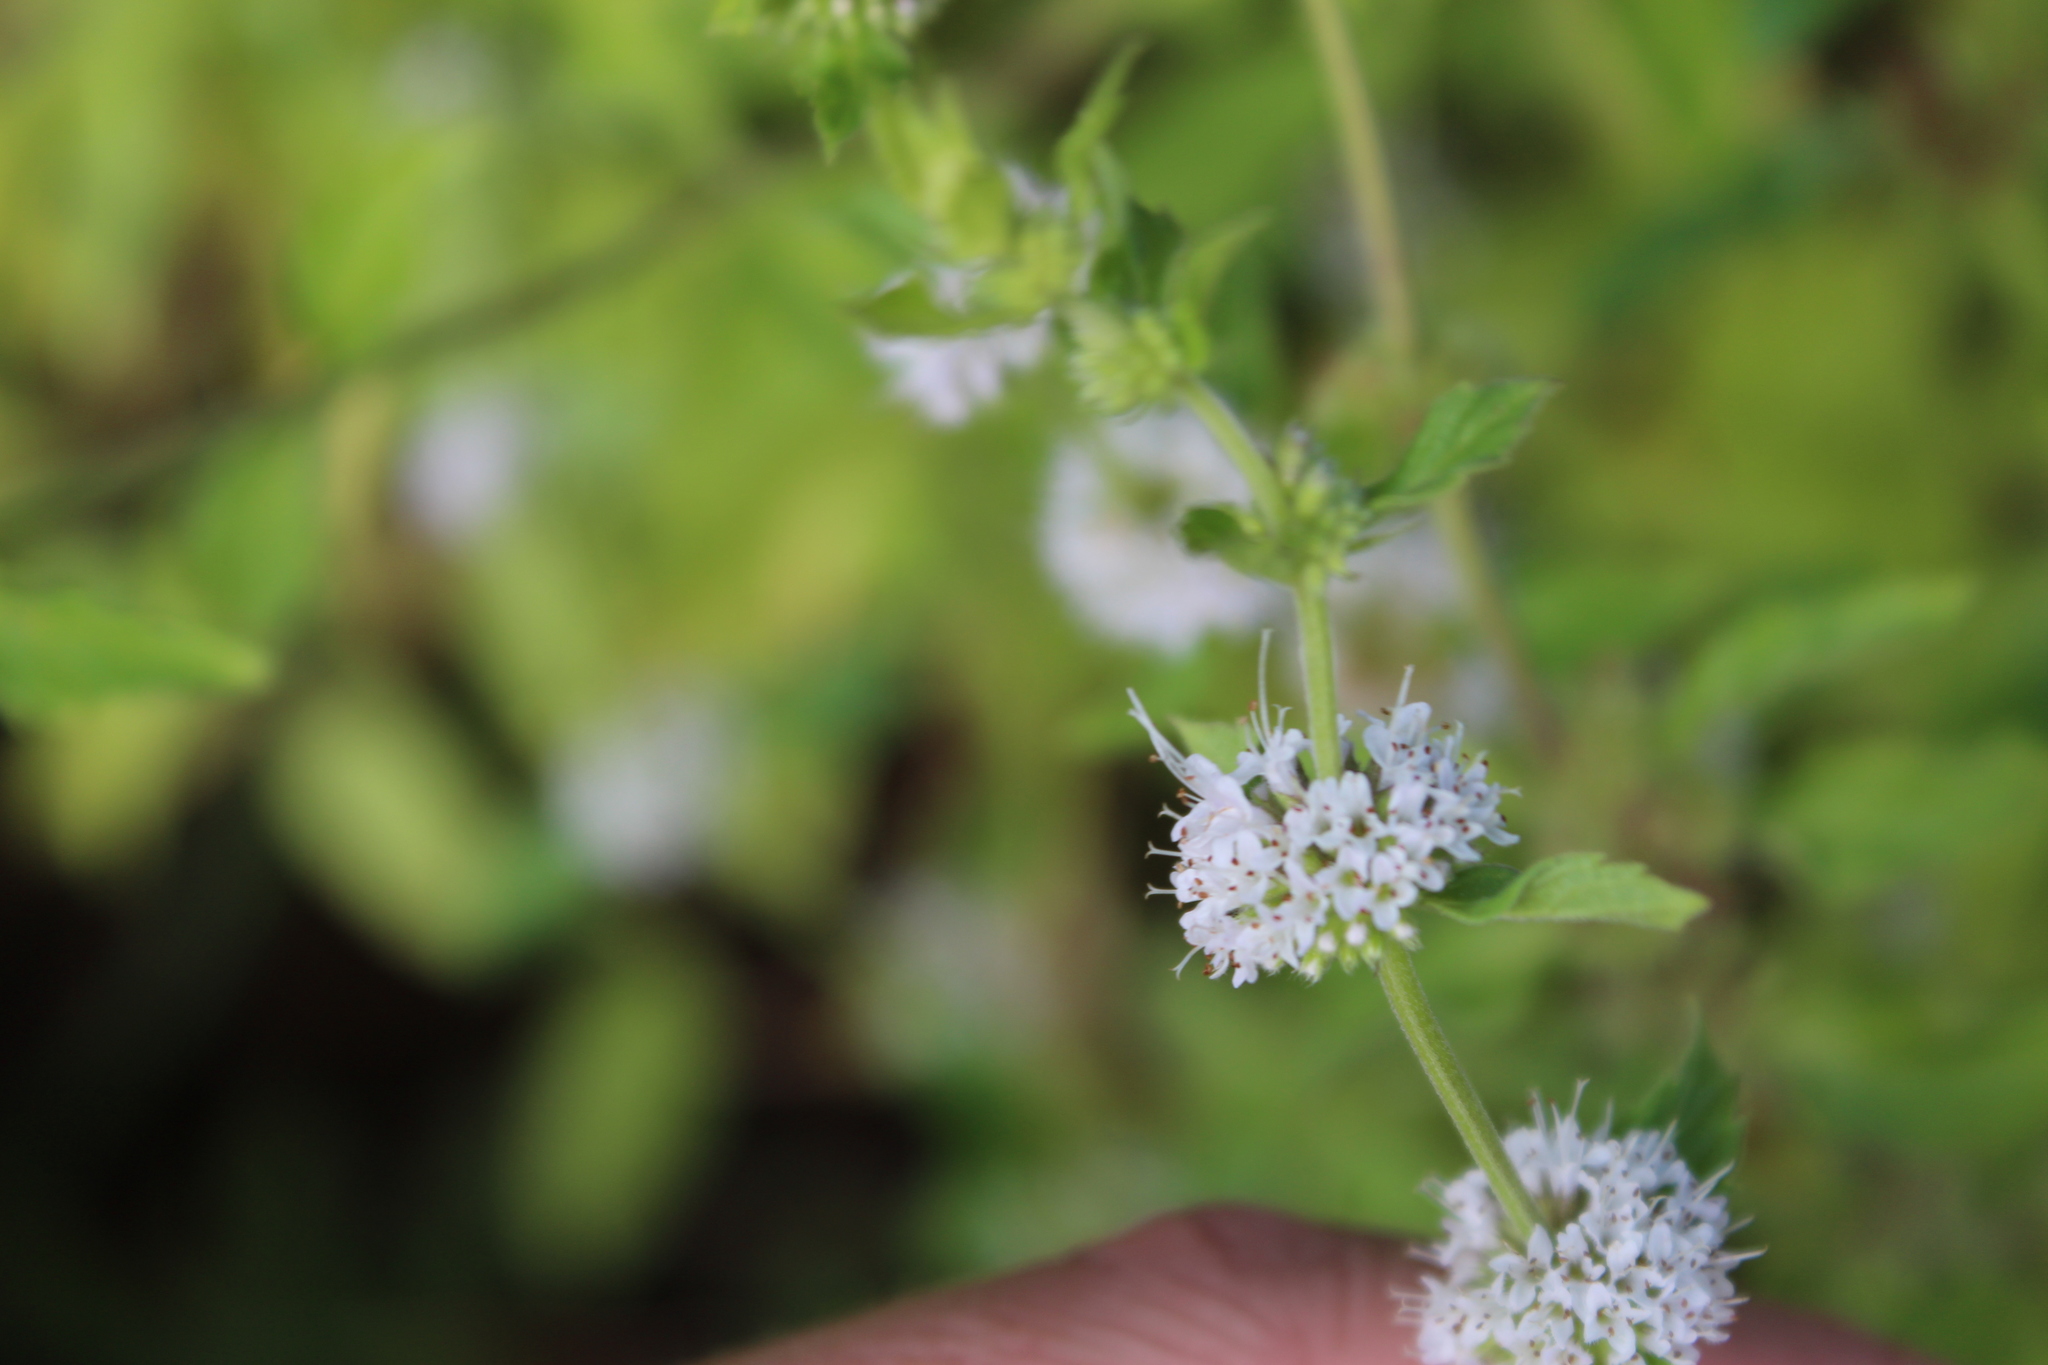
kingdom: Plantae
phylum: Tracheophyta
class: Magnoliopsida
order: Lamiales
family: Lamiaceae
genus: Mentha
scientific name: Mentha arvensis
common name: Corn mint
